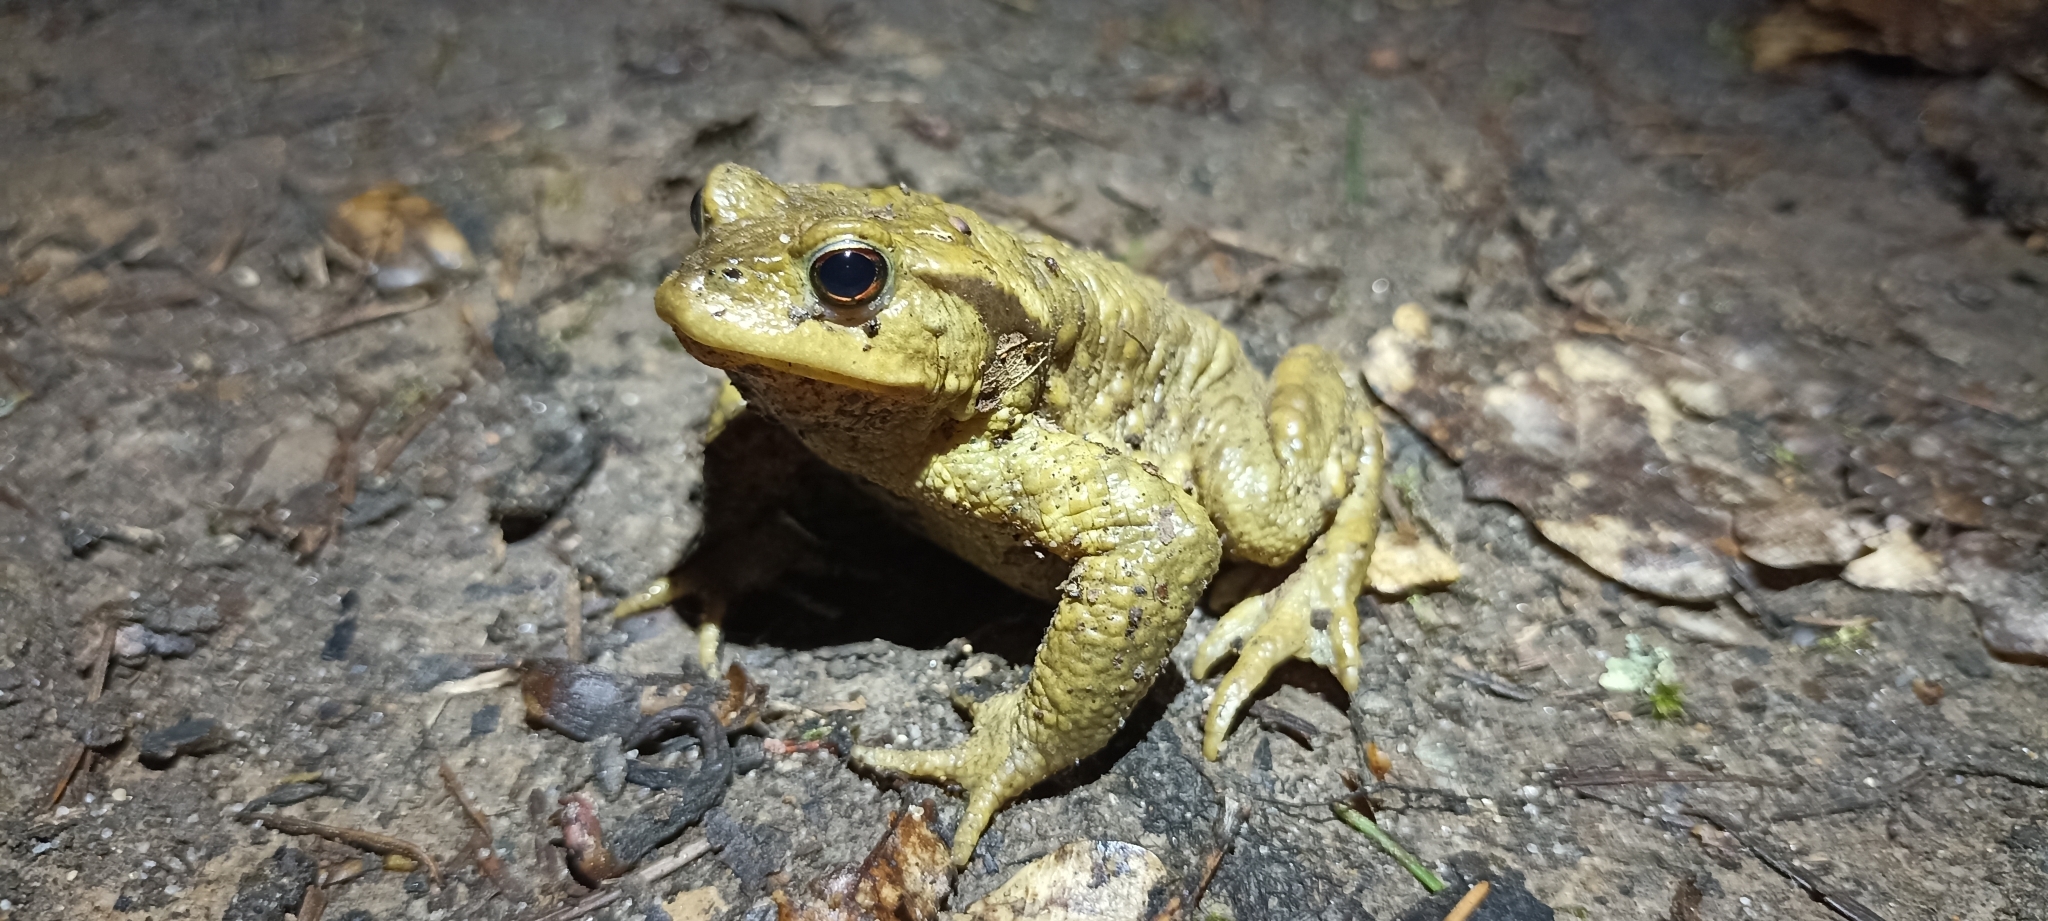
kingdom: Animalia
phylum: Chordata
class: Amphibia
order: Anura
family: Bufonidae
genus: Bufo
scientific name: Bufo spinosus
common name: Western common toad
